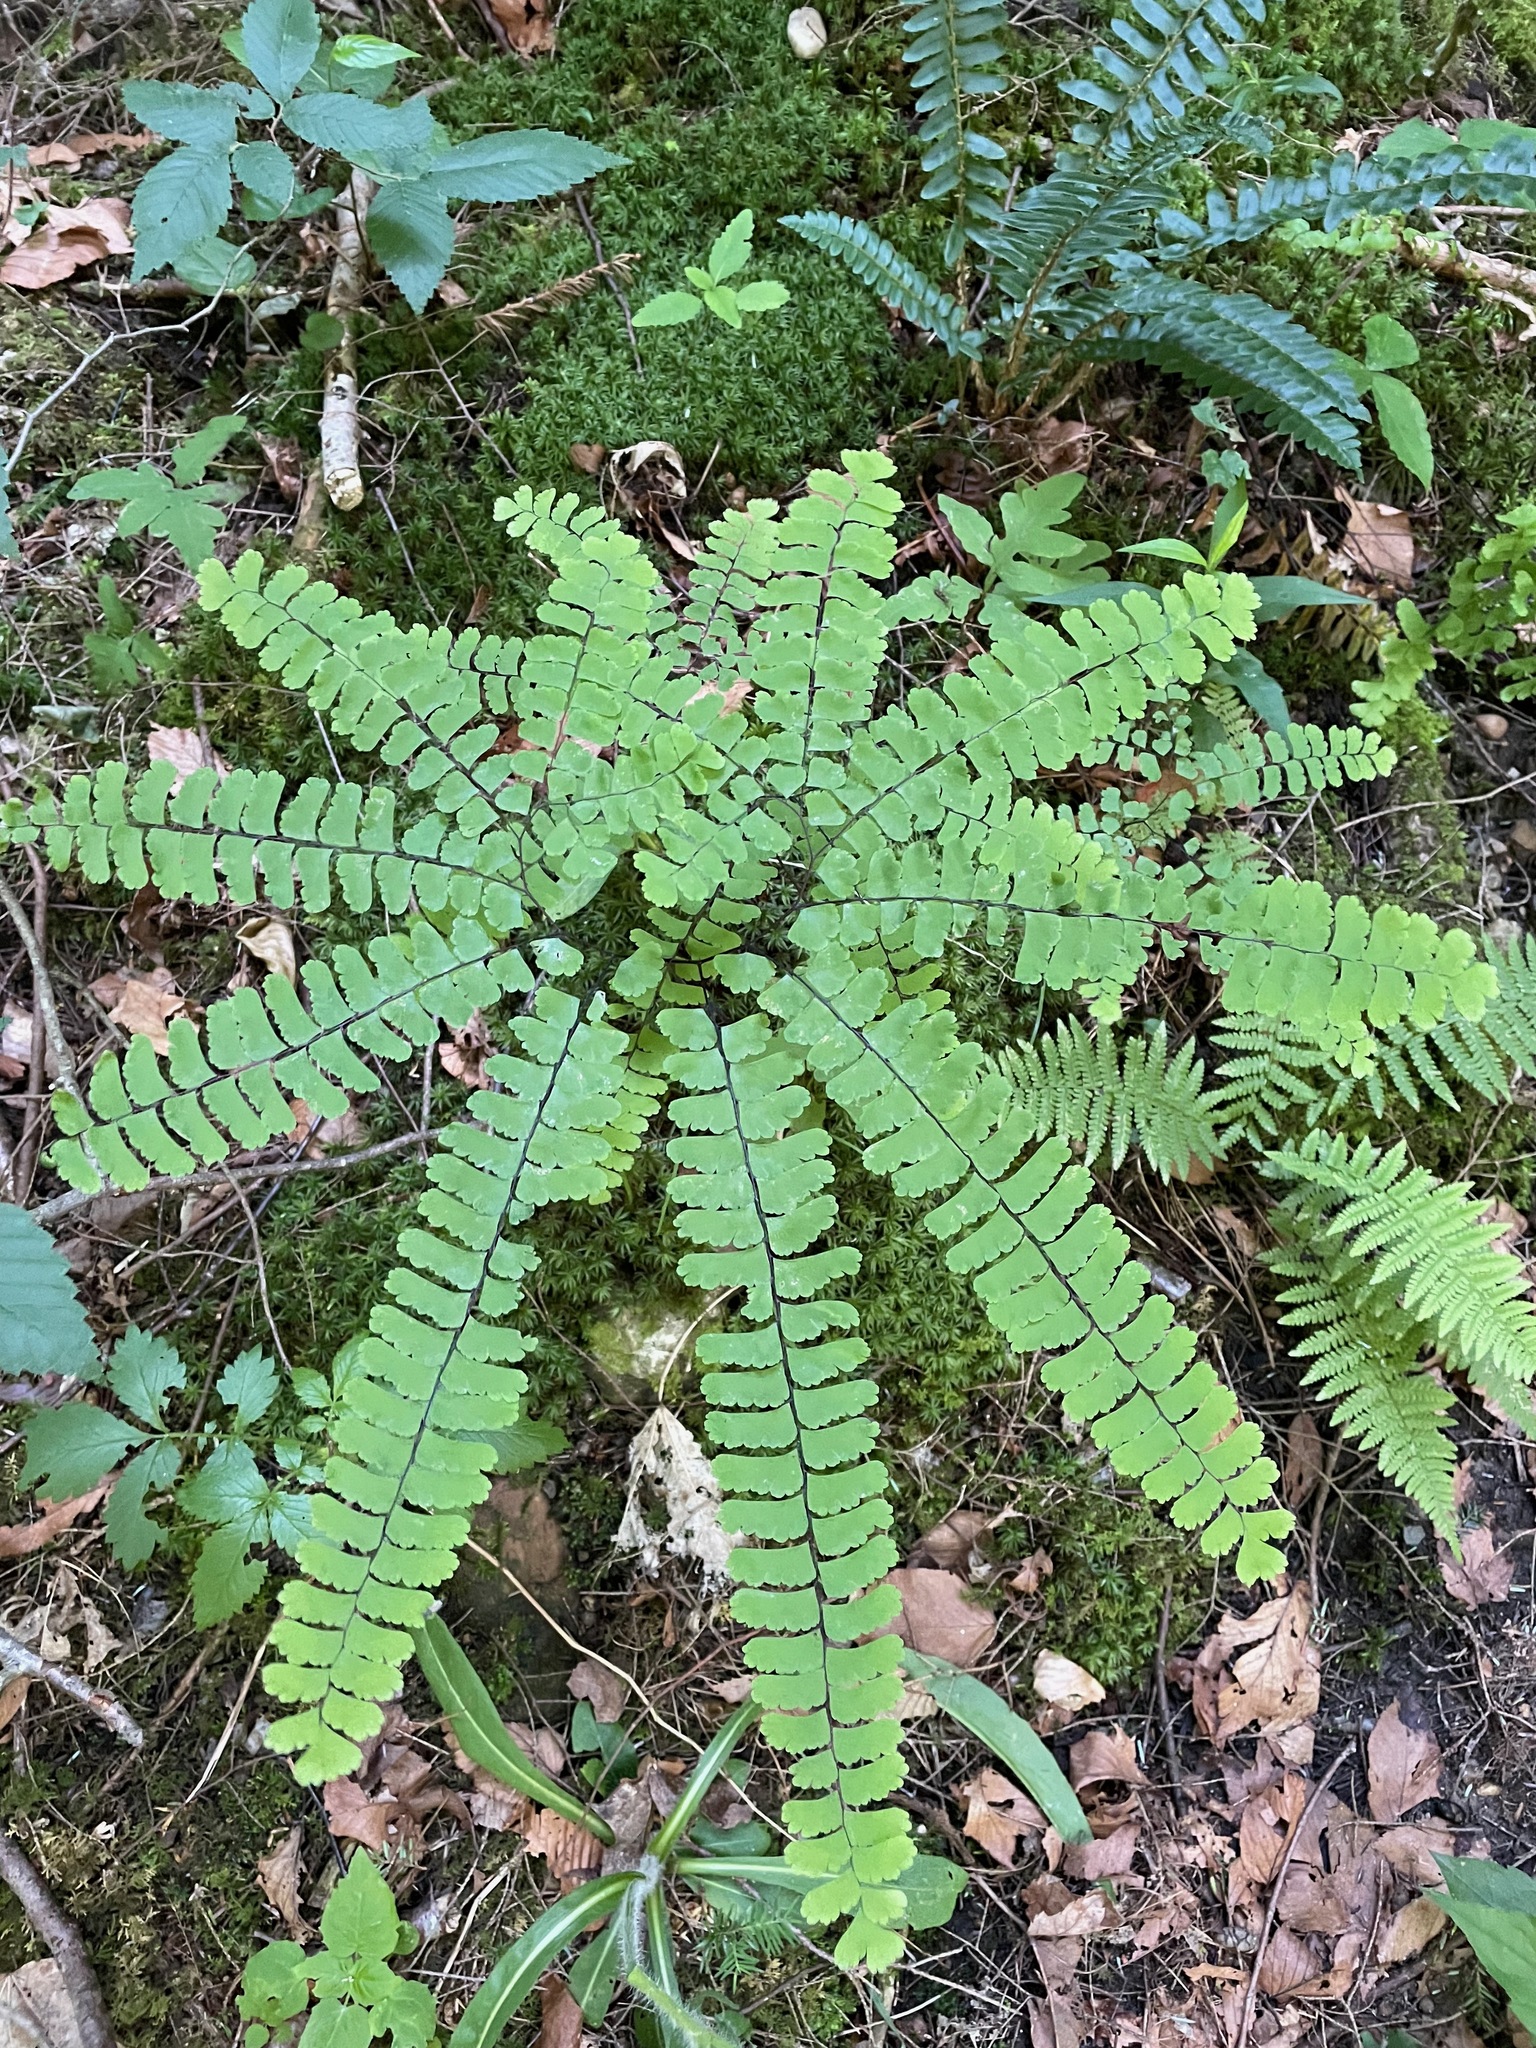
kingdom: Plantae
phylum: Tracheophyta
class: Polypodiopsida
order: Polypodiales
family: Pteridaceae
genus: Adiantum
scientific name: Adiantum pedatum
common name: Five-finger fern
